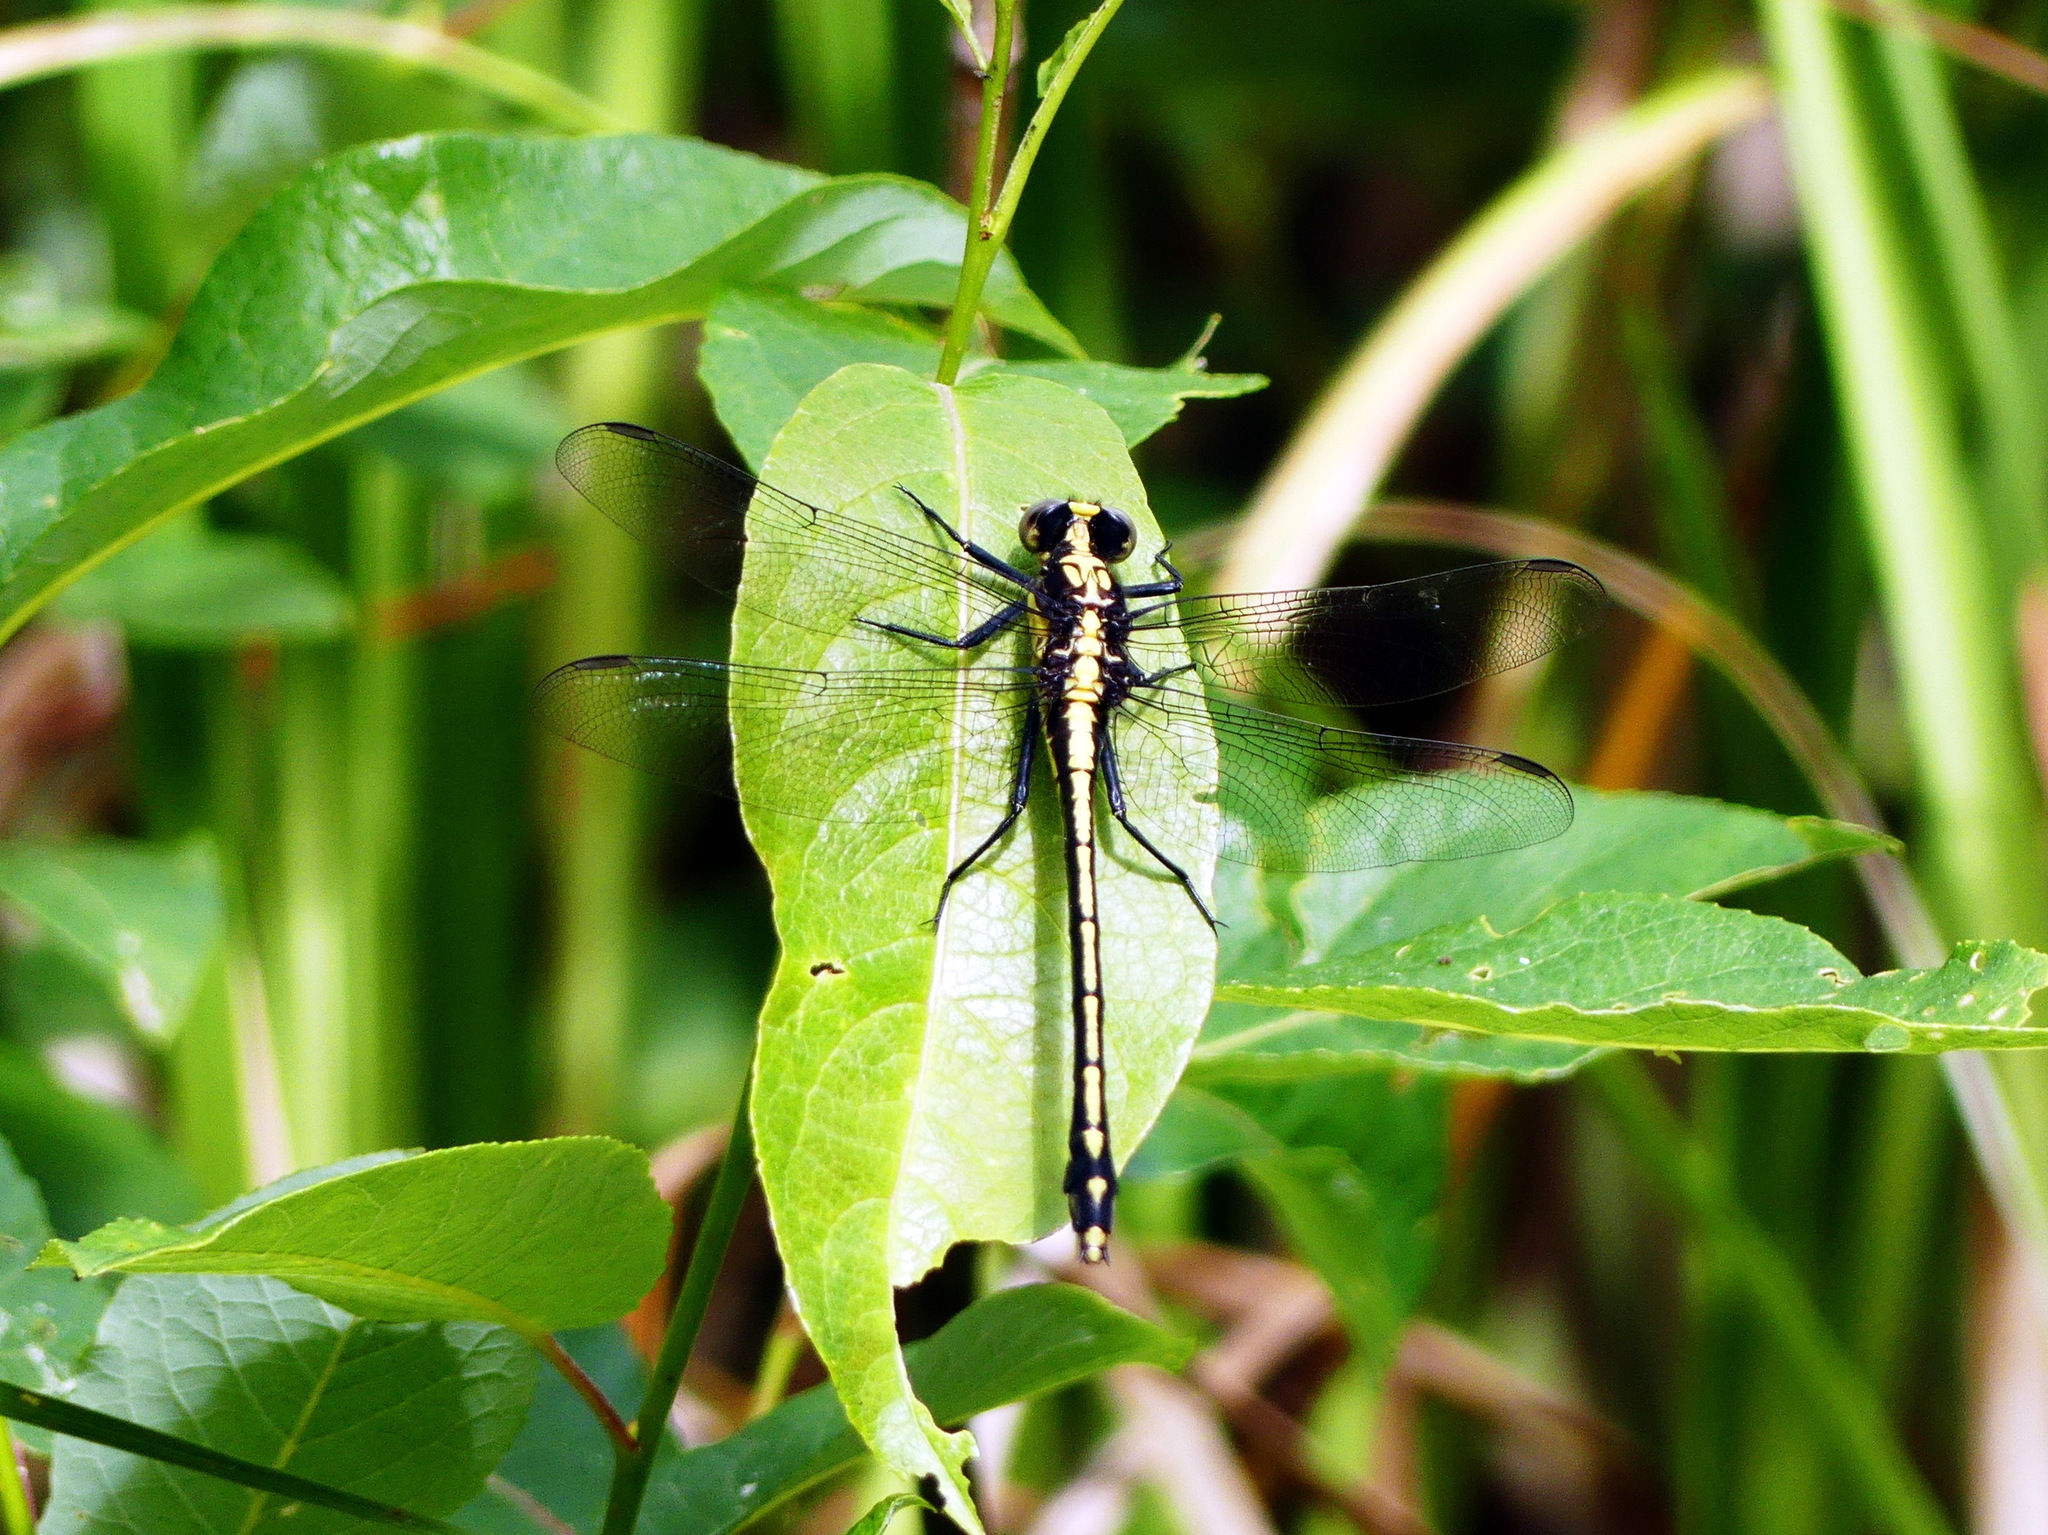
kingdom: Animalia
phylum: Arthropoda
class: Insecta
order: Odonata
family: Gomphidae
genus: Dromogomphus
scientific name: Dromogomphus spinosus
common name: Black-shouldered spinyleg
